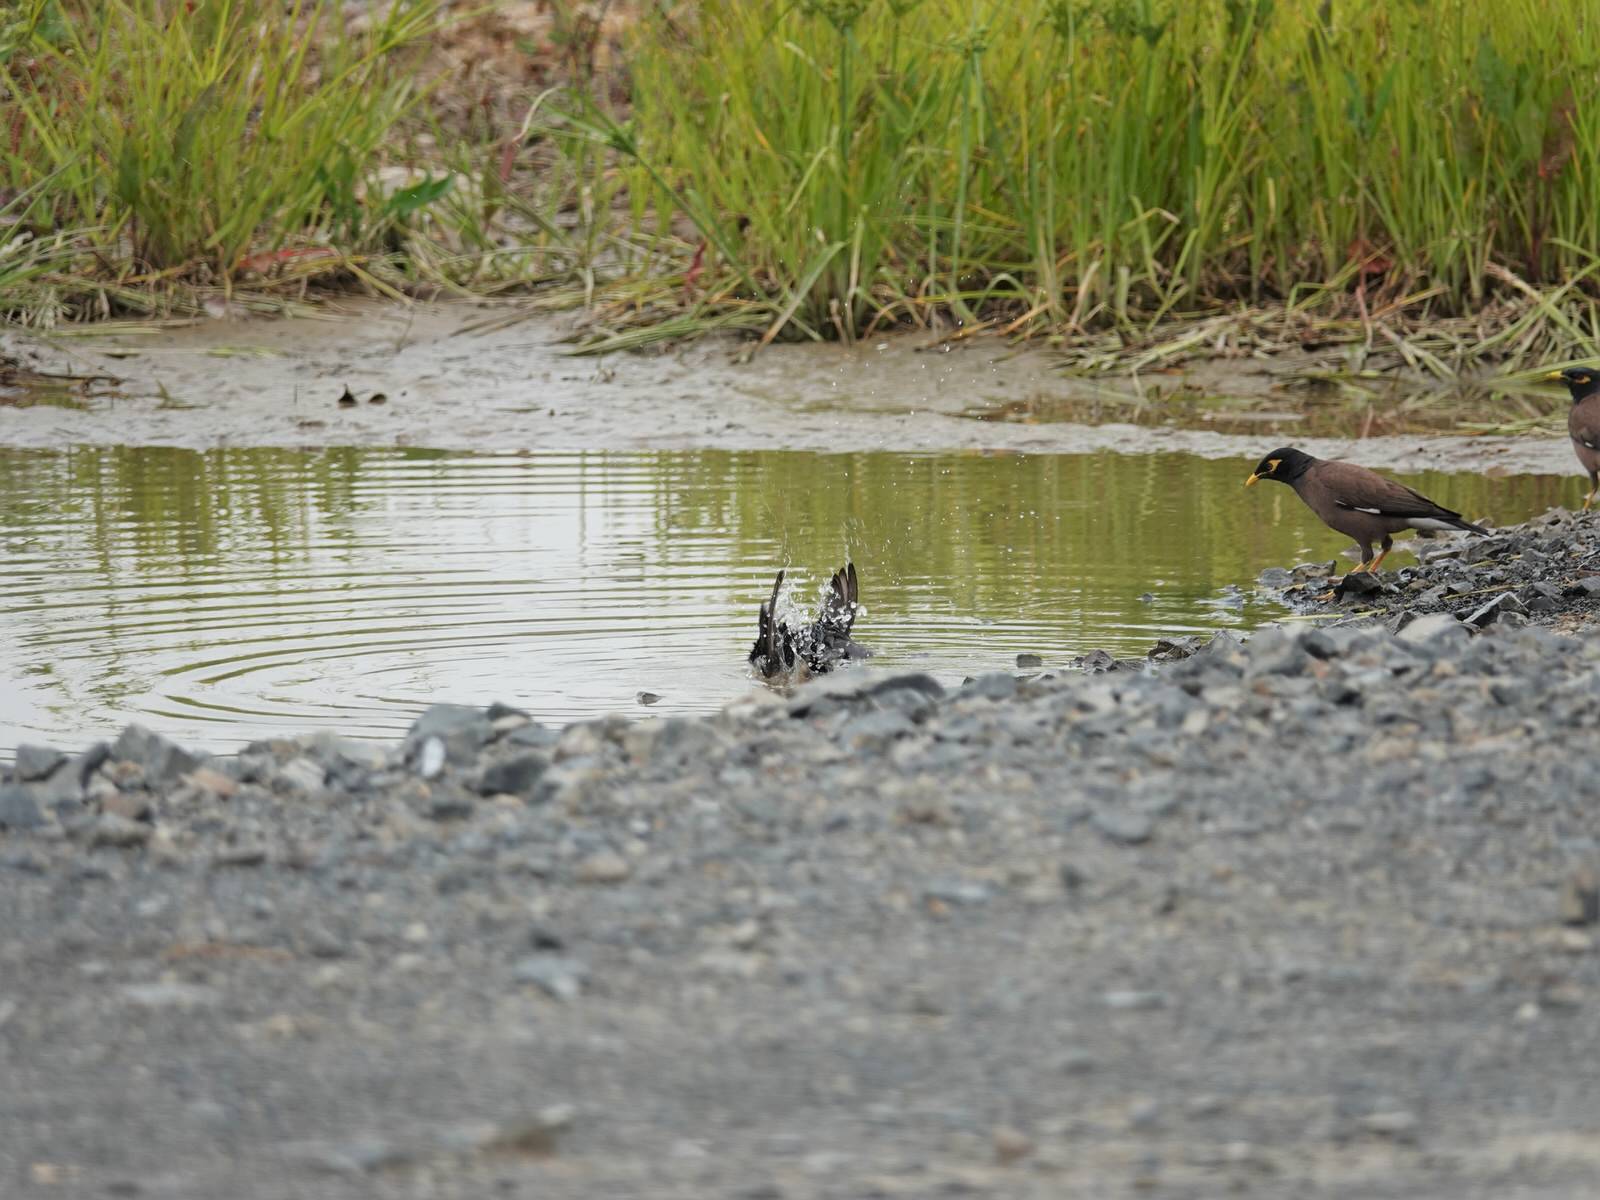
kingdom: Animalia
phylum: Chordata
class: Aves
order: Passeriformes
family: Sturnidae
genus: Sturnus
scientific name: Sturnus vulgaris
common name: Common starling
